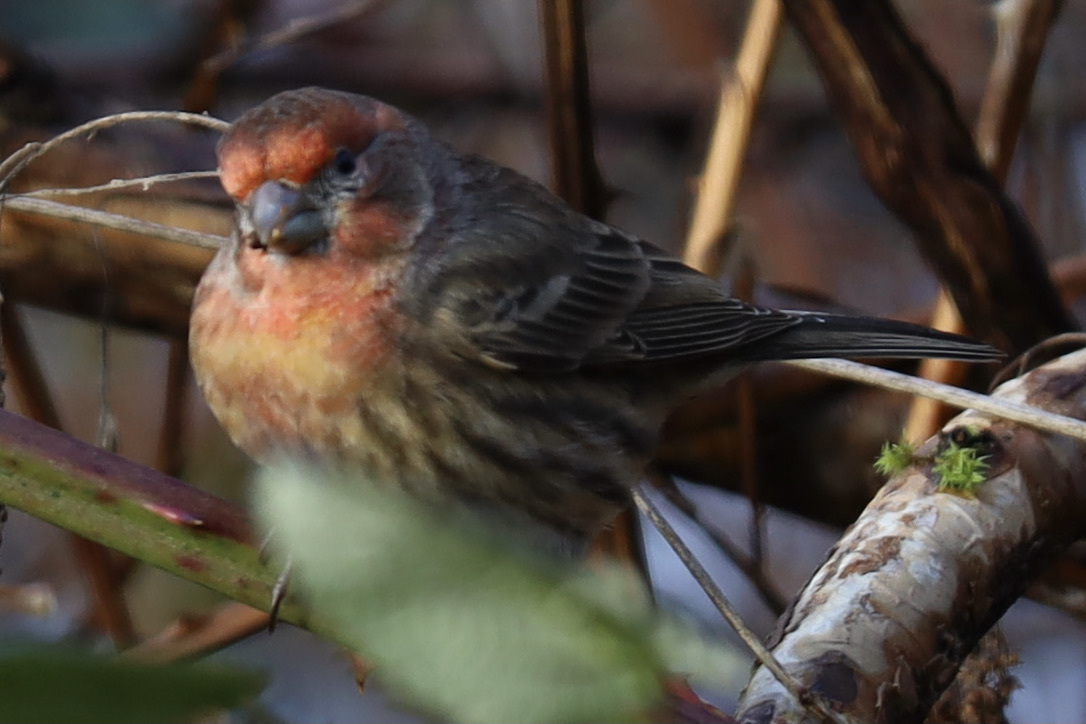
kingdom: Animalia
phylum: Chordata
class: Aves
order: Passeriformes
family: Fringillidae
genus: Haemorhous
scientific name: Haemorhous mexicanus
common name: House finch
